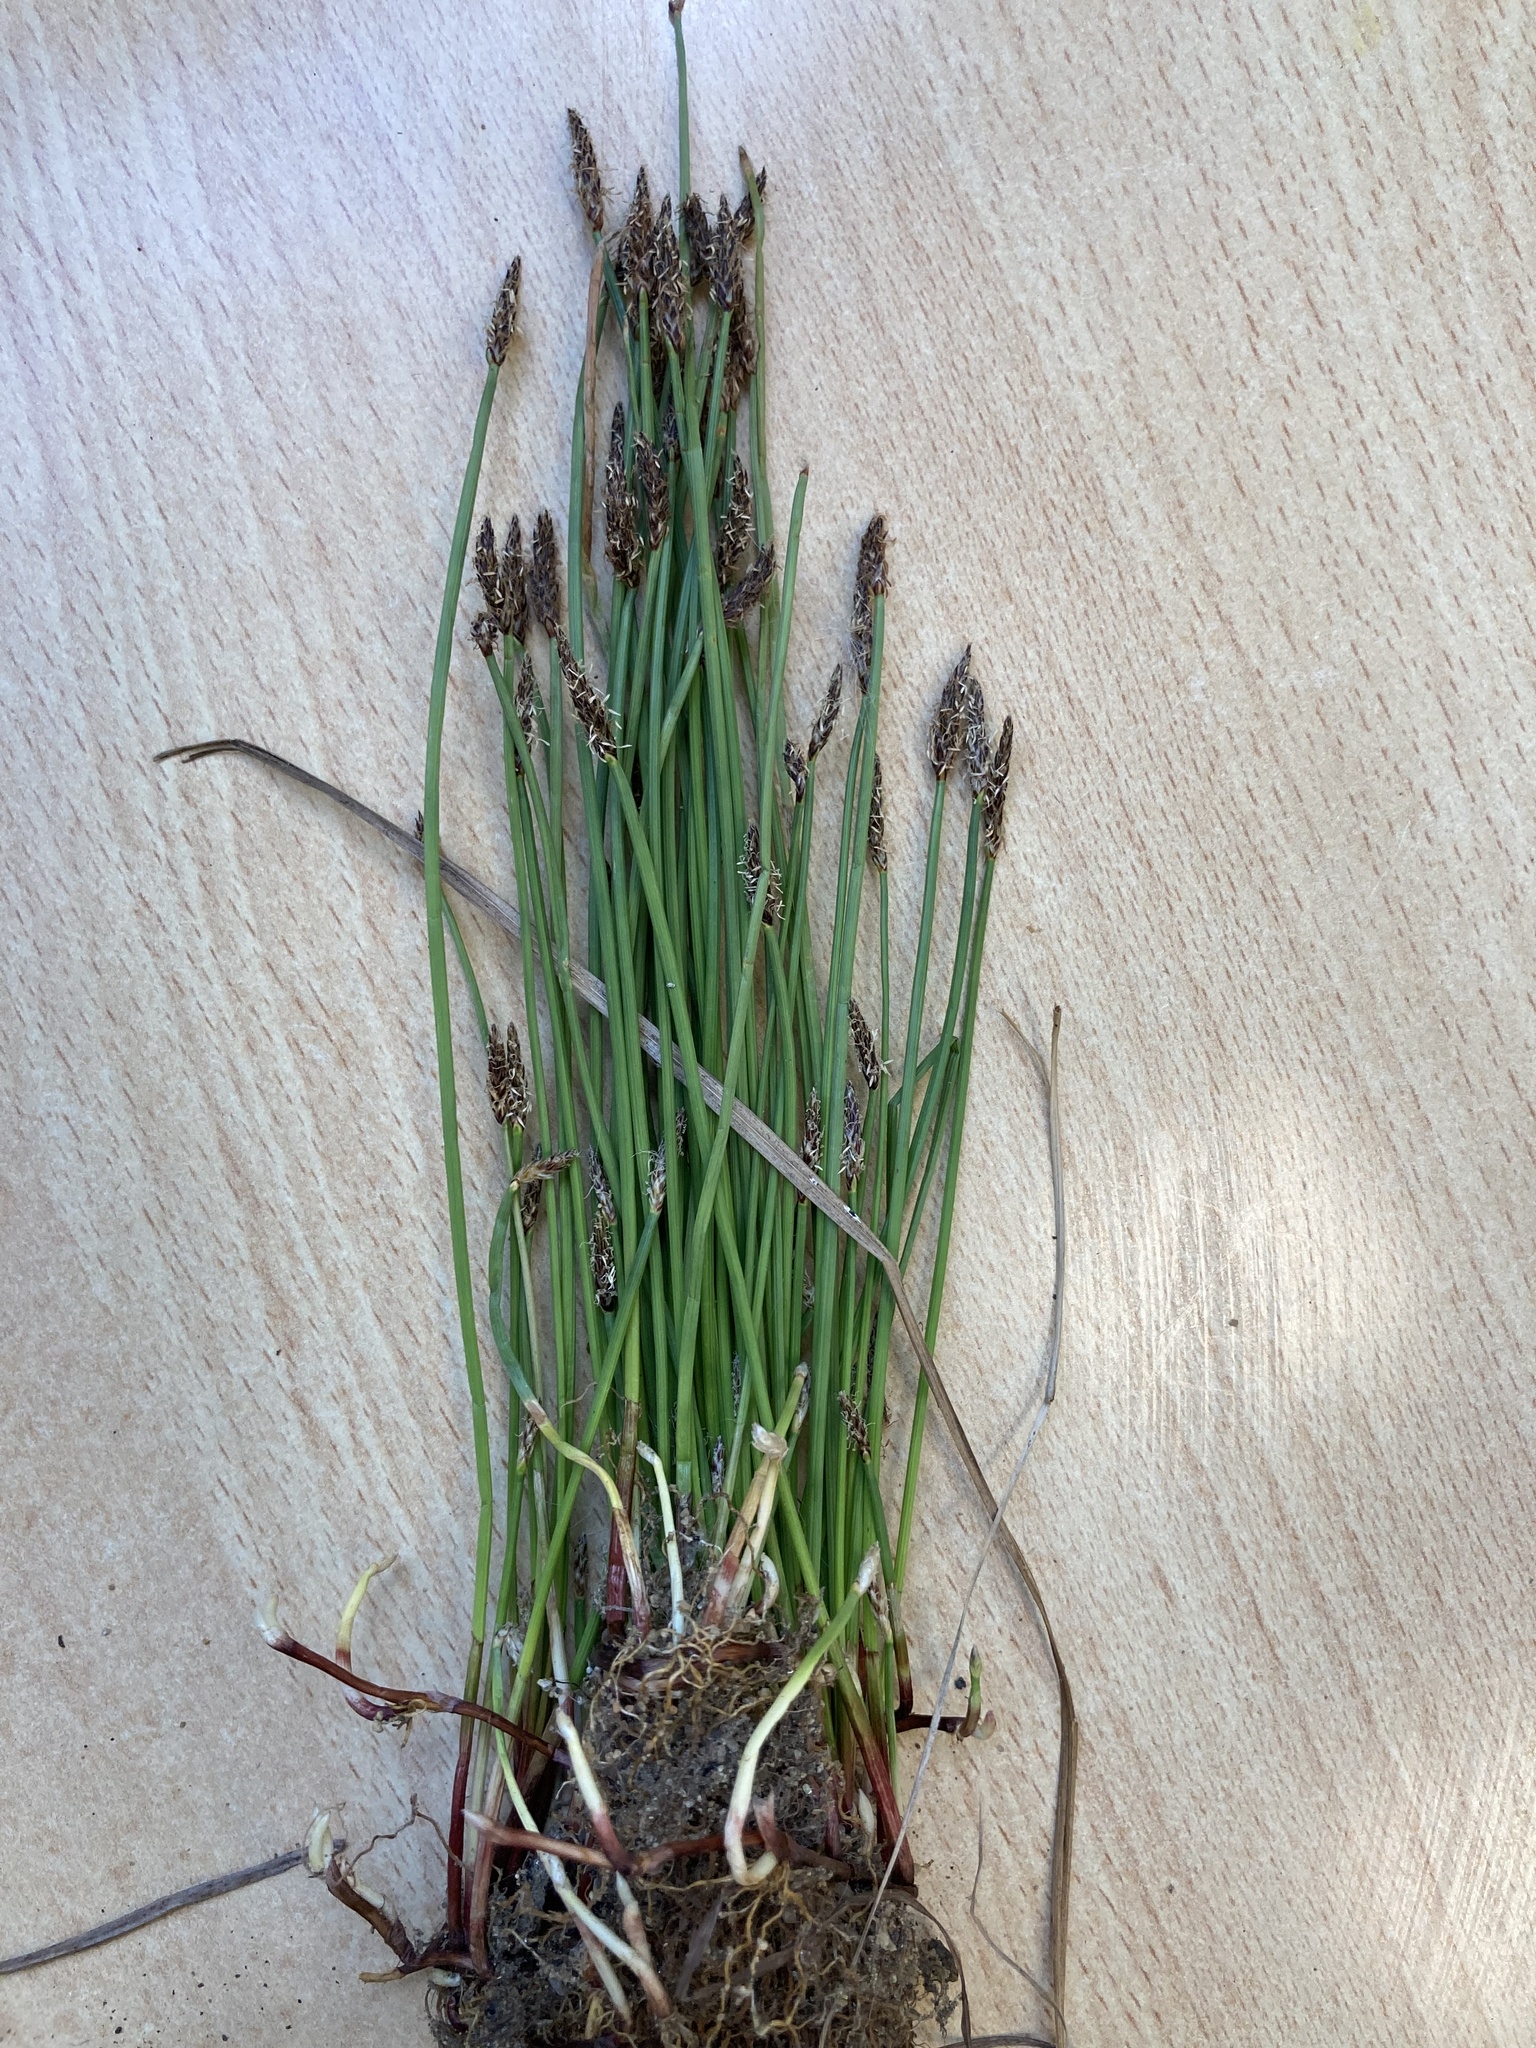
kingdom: Plantae
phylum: Tracheophyta
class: Liliopsida
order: Poales
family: Cyperaceae
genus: Eleocharis
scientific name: Eleocharis palustris
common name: Common spike-rush
